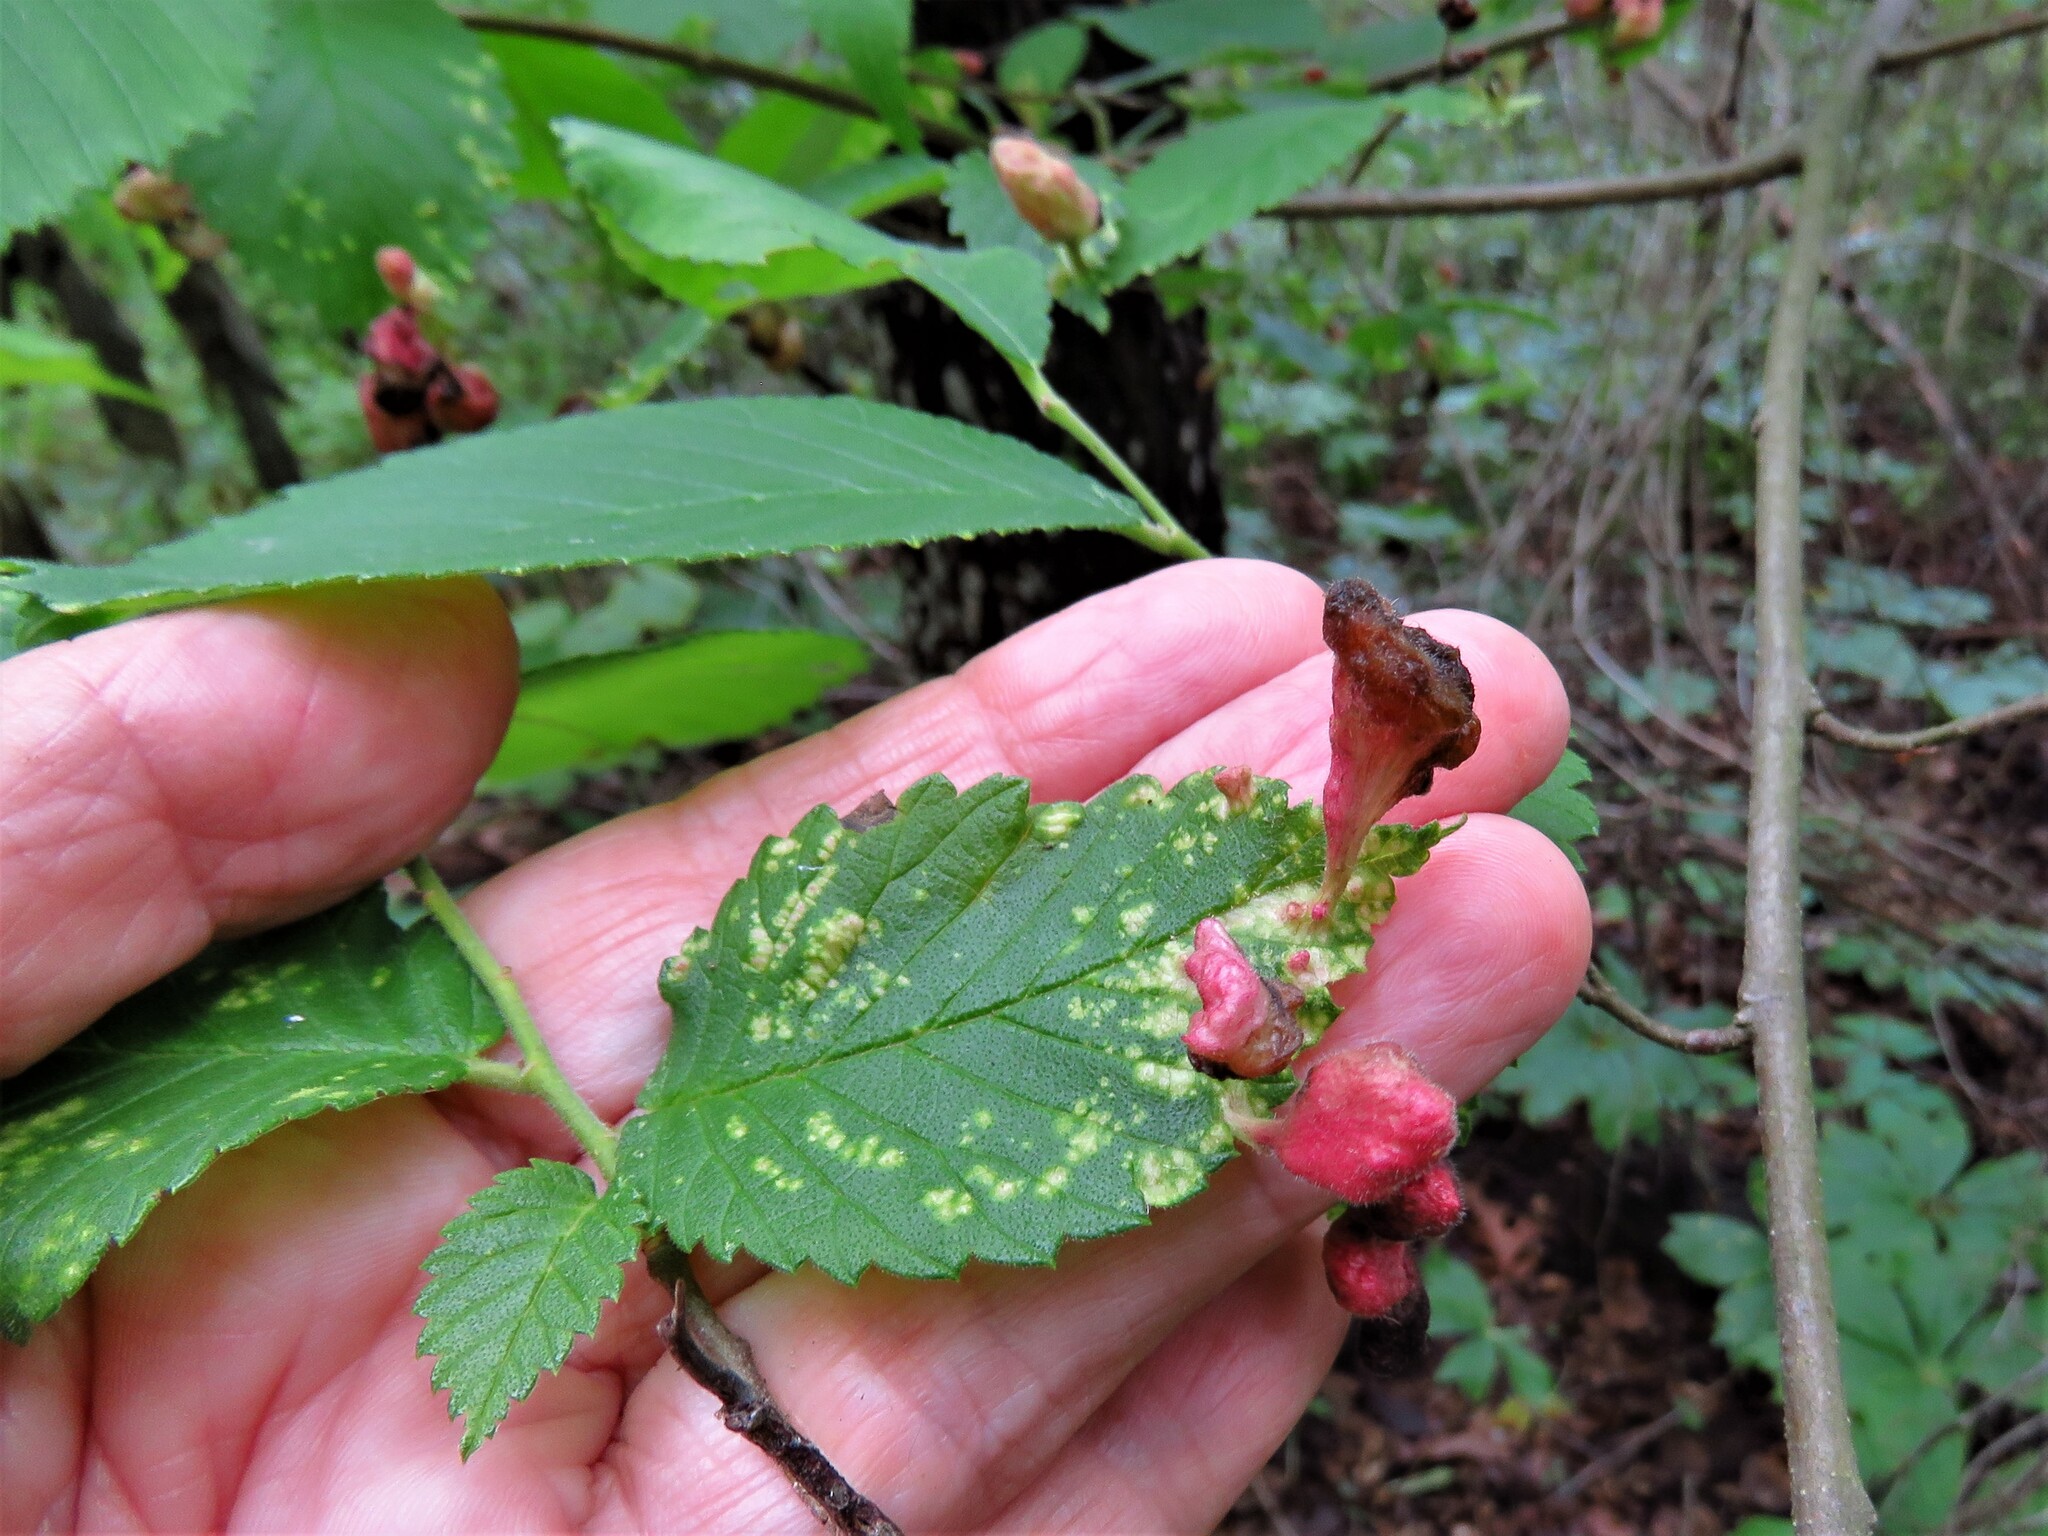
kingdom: Animalia
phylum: Arthropoda
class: Insecta
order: Hemiptera
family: Aphididae
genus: Tetraneura
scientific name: Tetraneura nigriabdominalis
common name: Aphid
